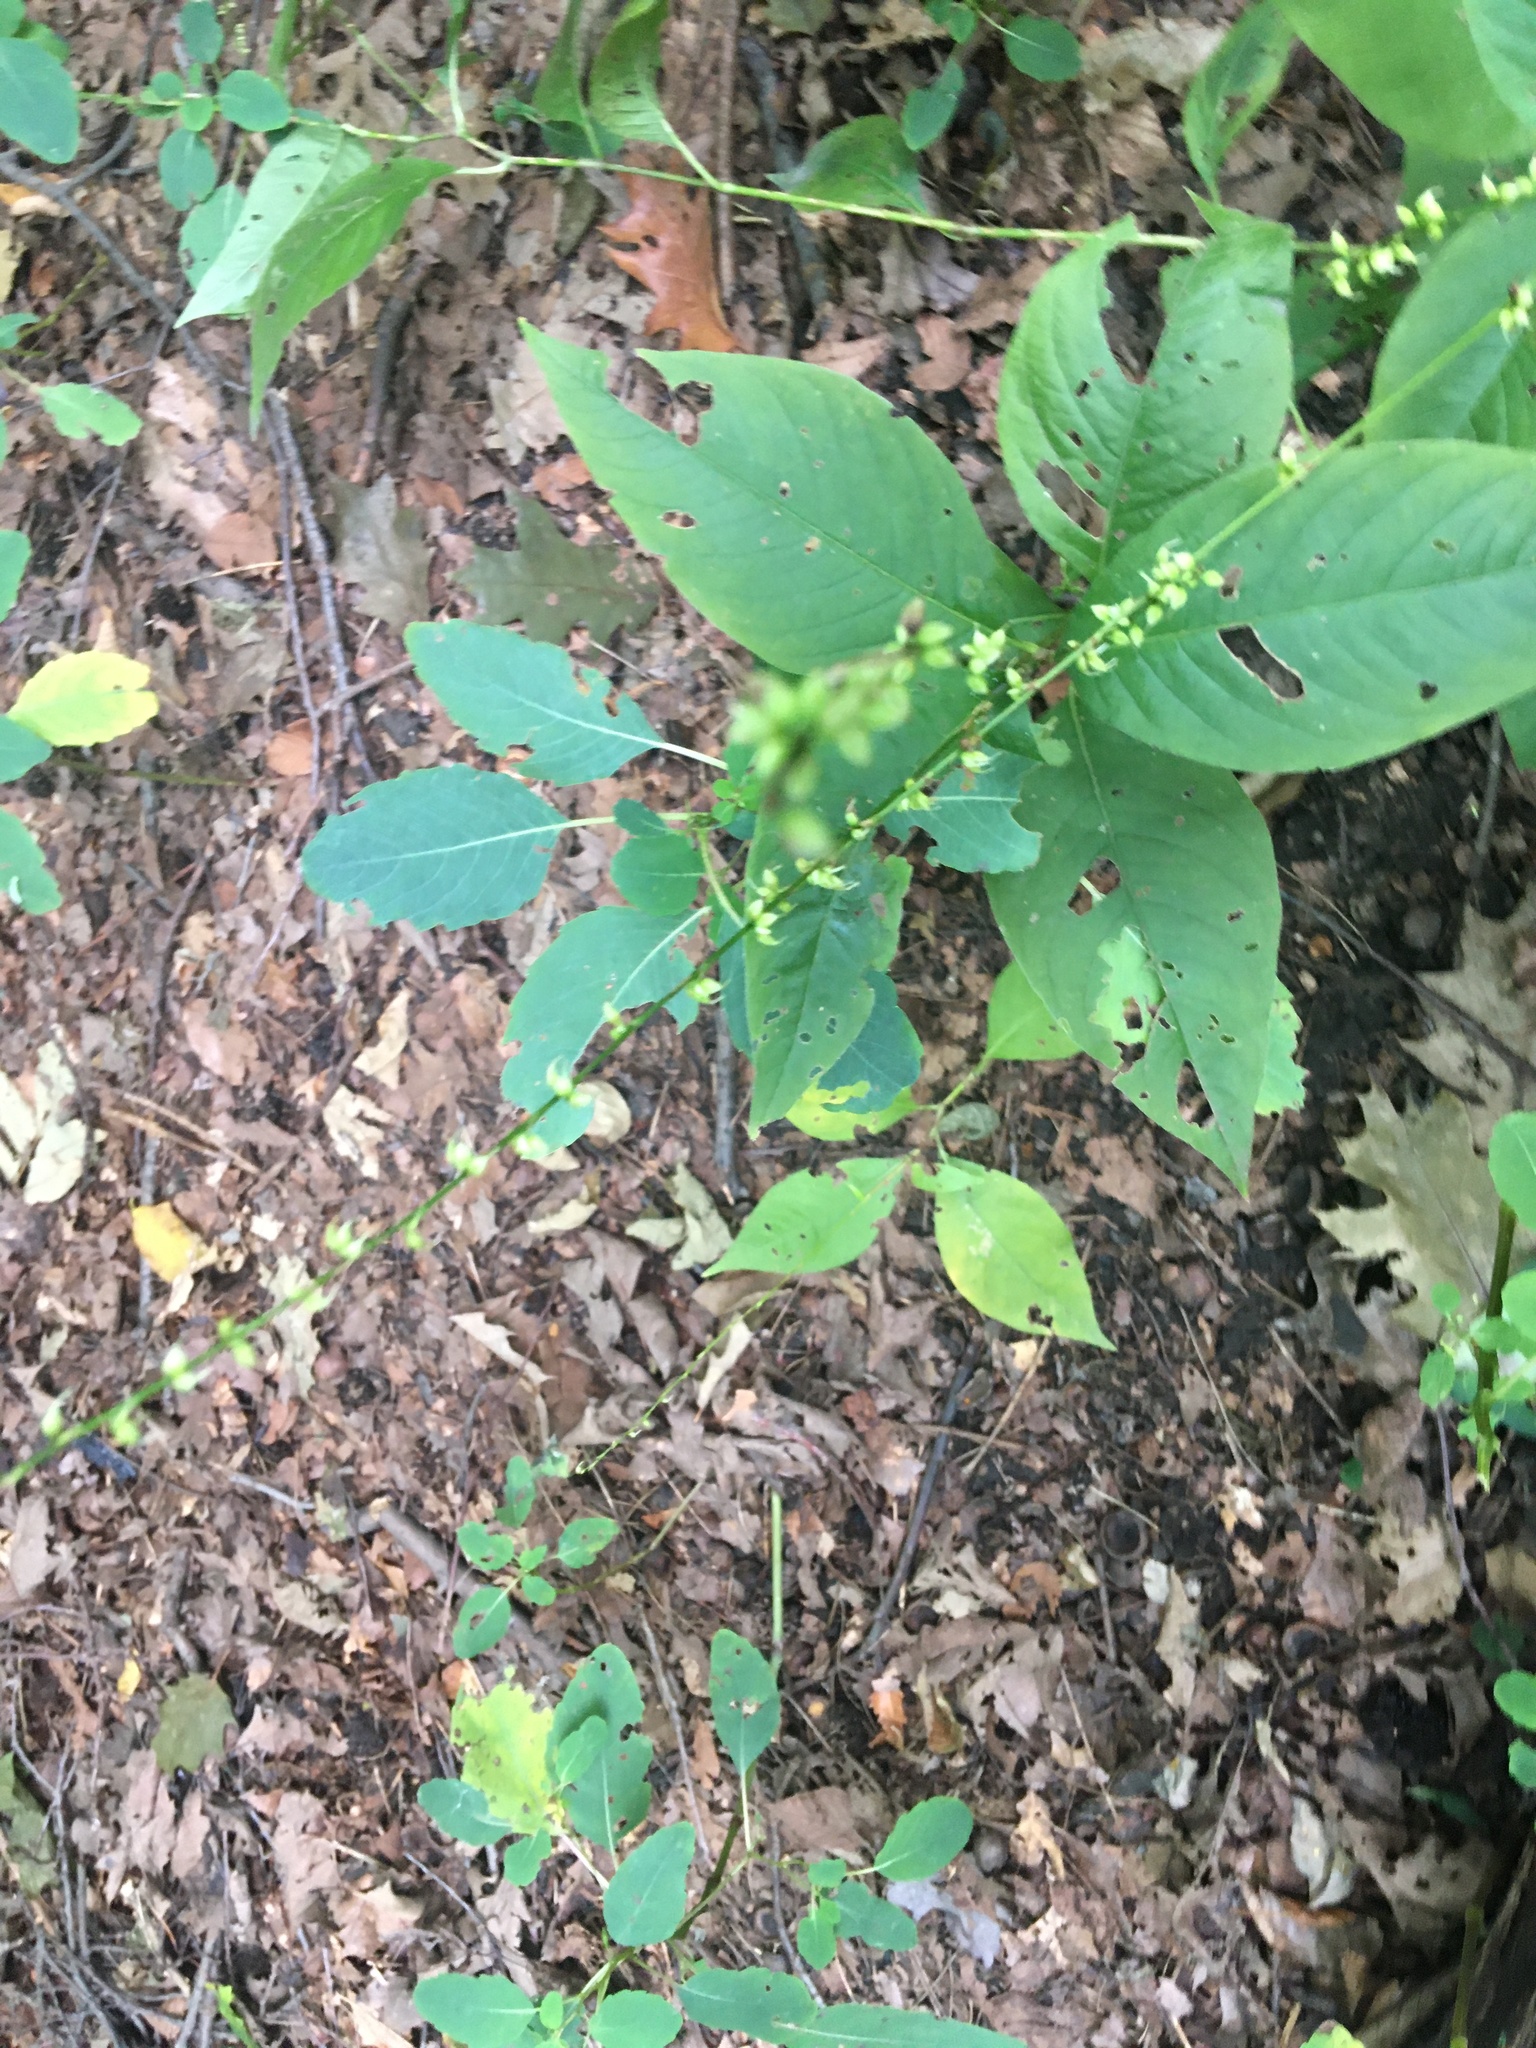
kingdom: Plantae
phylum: Tracheophyta
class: Magnoliopsida
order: Caryophyllales
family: Polygonaceae
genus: Persicaria
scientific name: Persicaria virginiana
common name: Jumpseed
